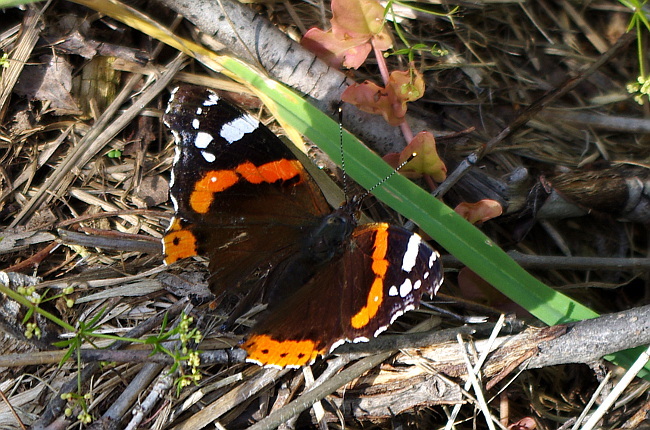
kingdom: Animalia
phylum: Arthropoda
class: Insecta
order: Lepidoptera
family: Nymphalidae
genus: Vanessa
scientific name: Vanessa atalanta
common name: Red admiral
